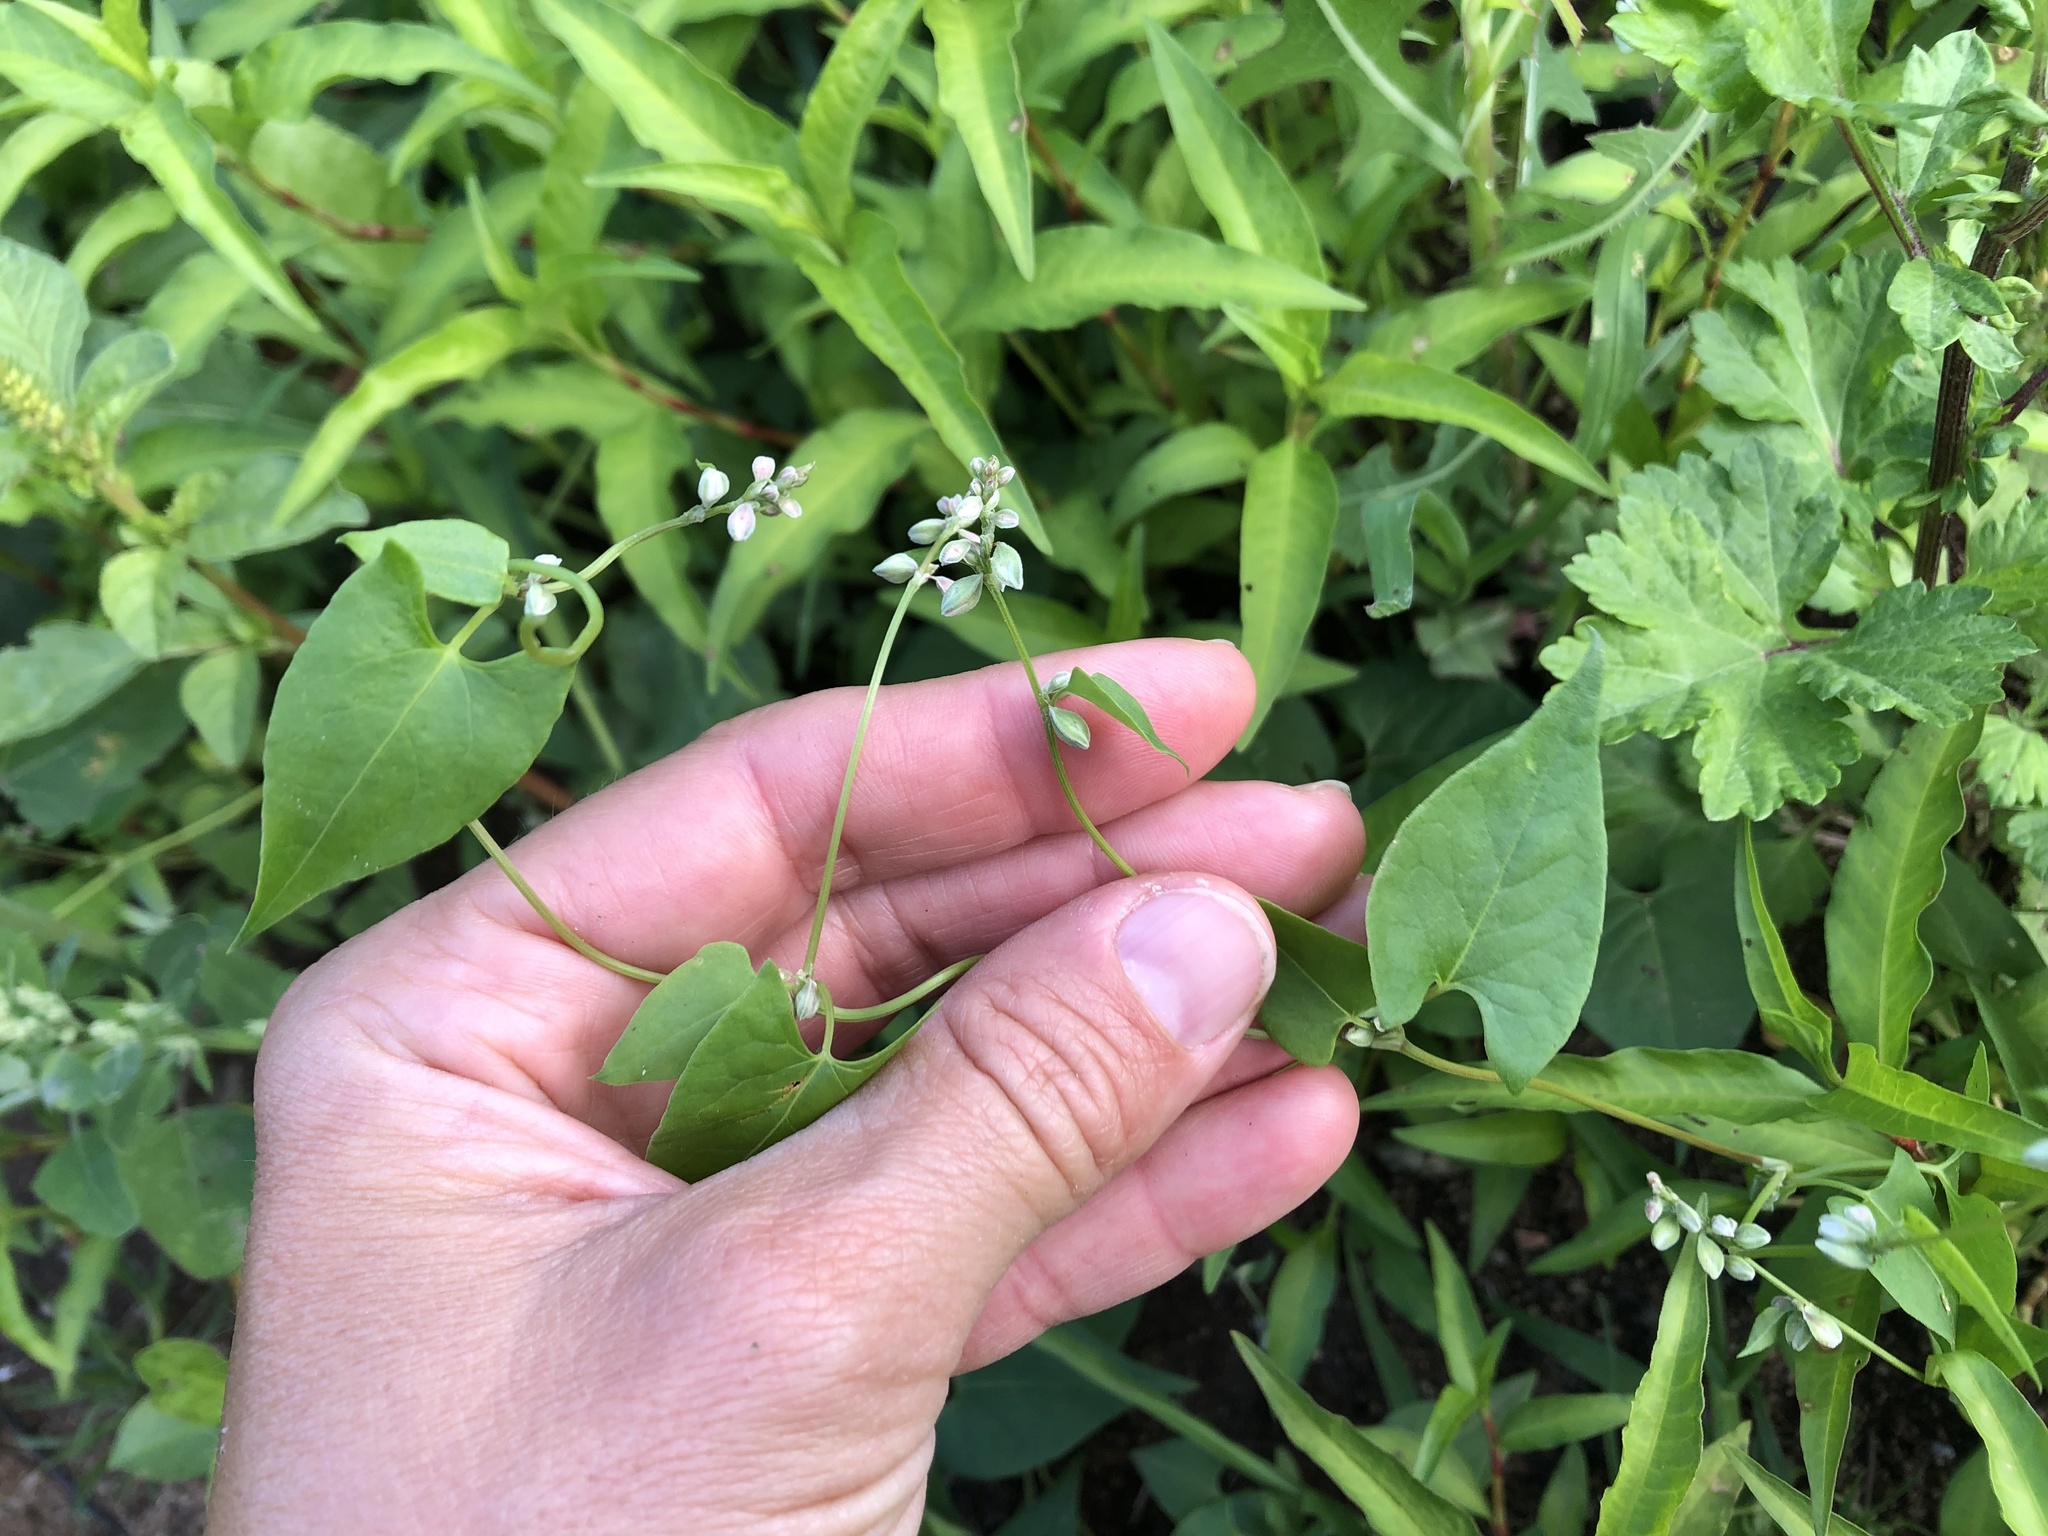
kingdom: Plantae
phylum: Tracheophyta
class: Magnoliopsida
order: Caryophyllales
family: Polygonaceae
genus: Fallopia
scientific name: Fallopia convolvulus
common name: Black bindweed
